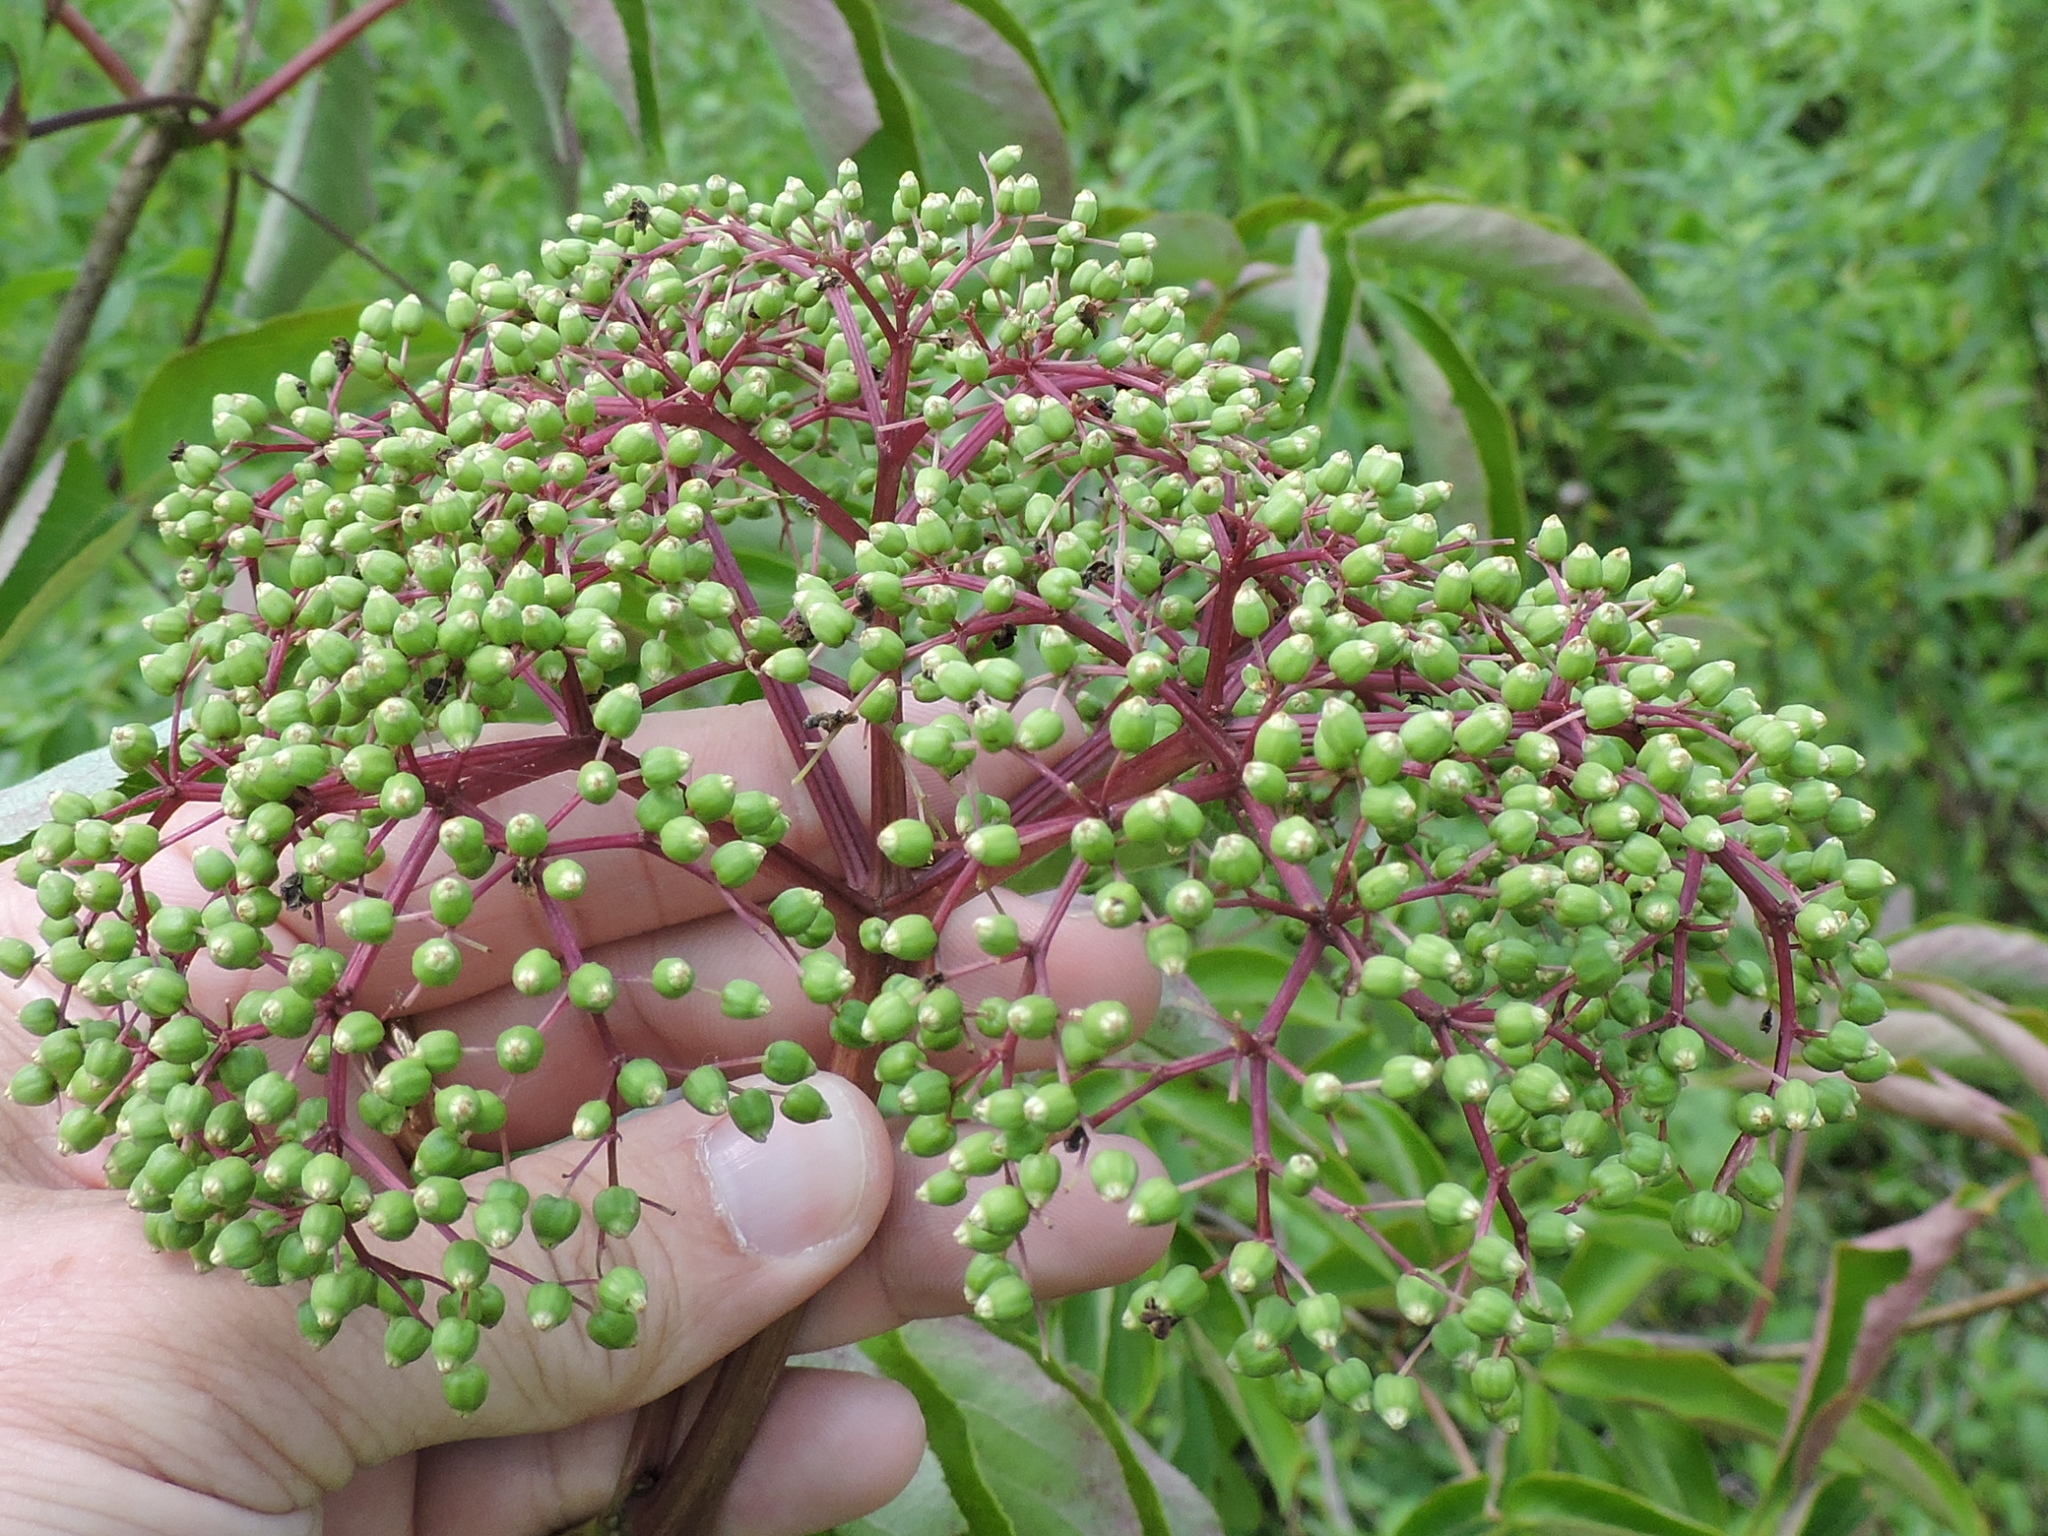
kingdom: Plantae
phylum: Tracheophyta
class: Magnoliopsida
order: Dipsacales
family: Viburnaceae
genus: Sambucus
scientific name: Sambucus canadensis
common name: American elder
